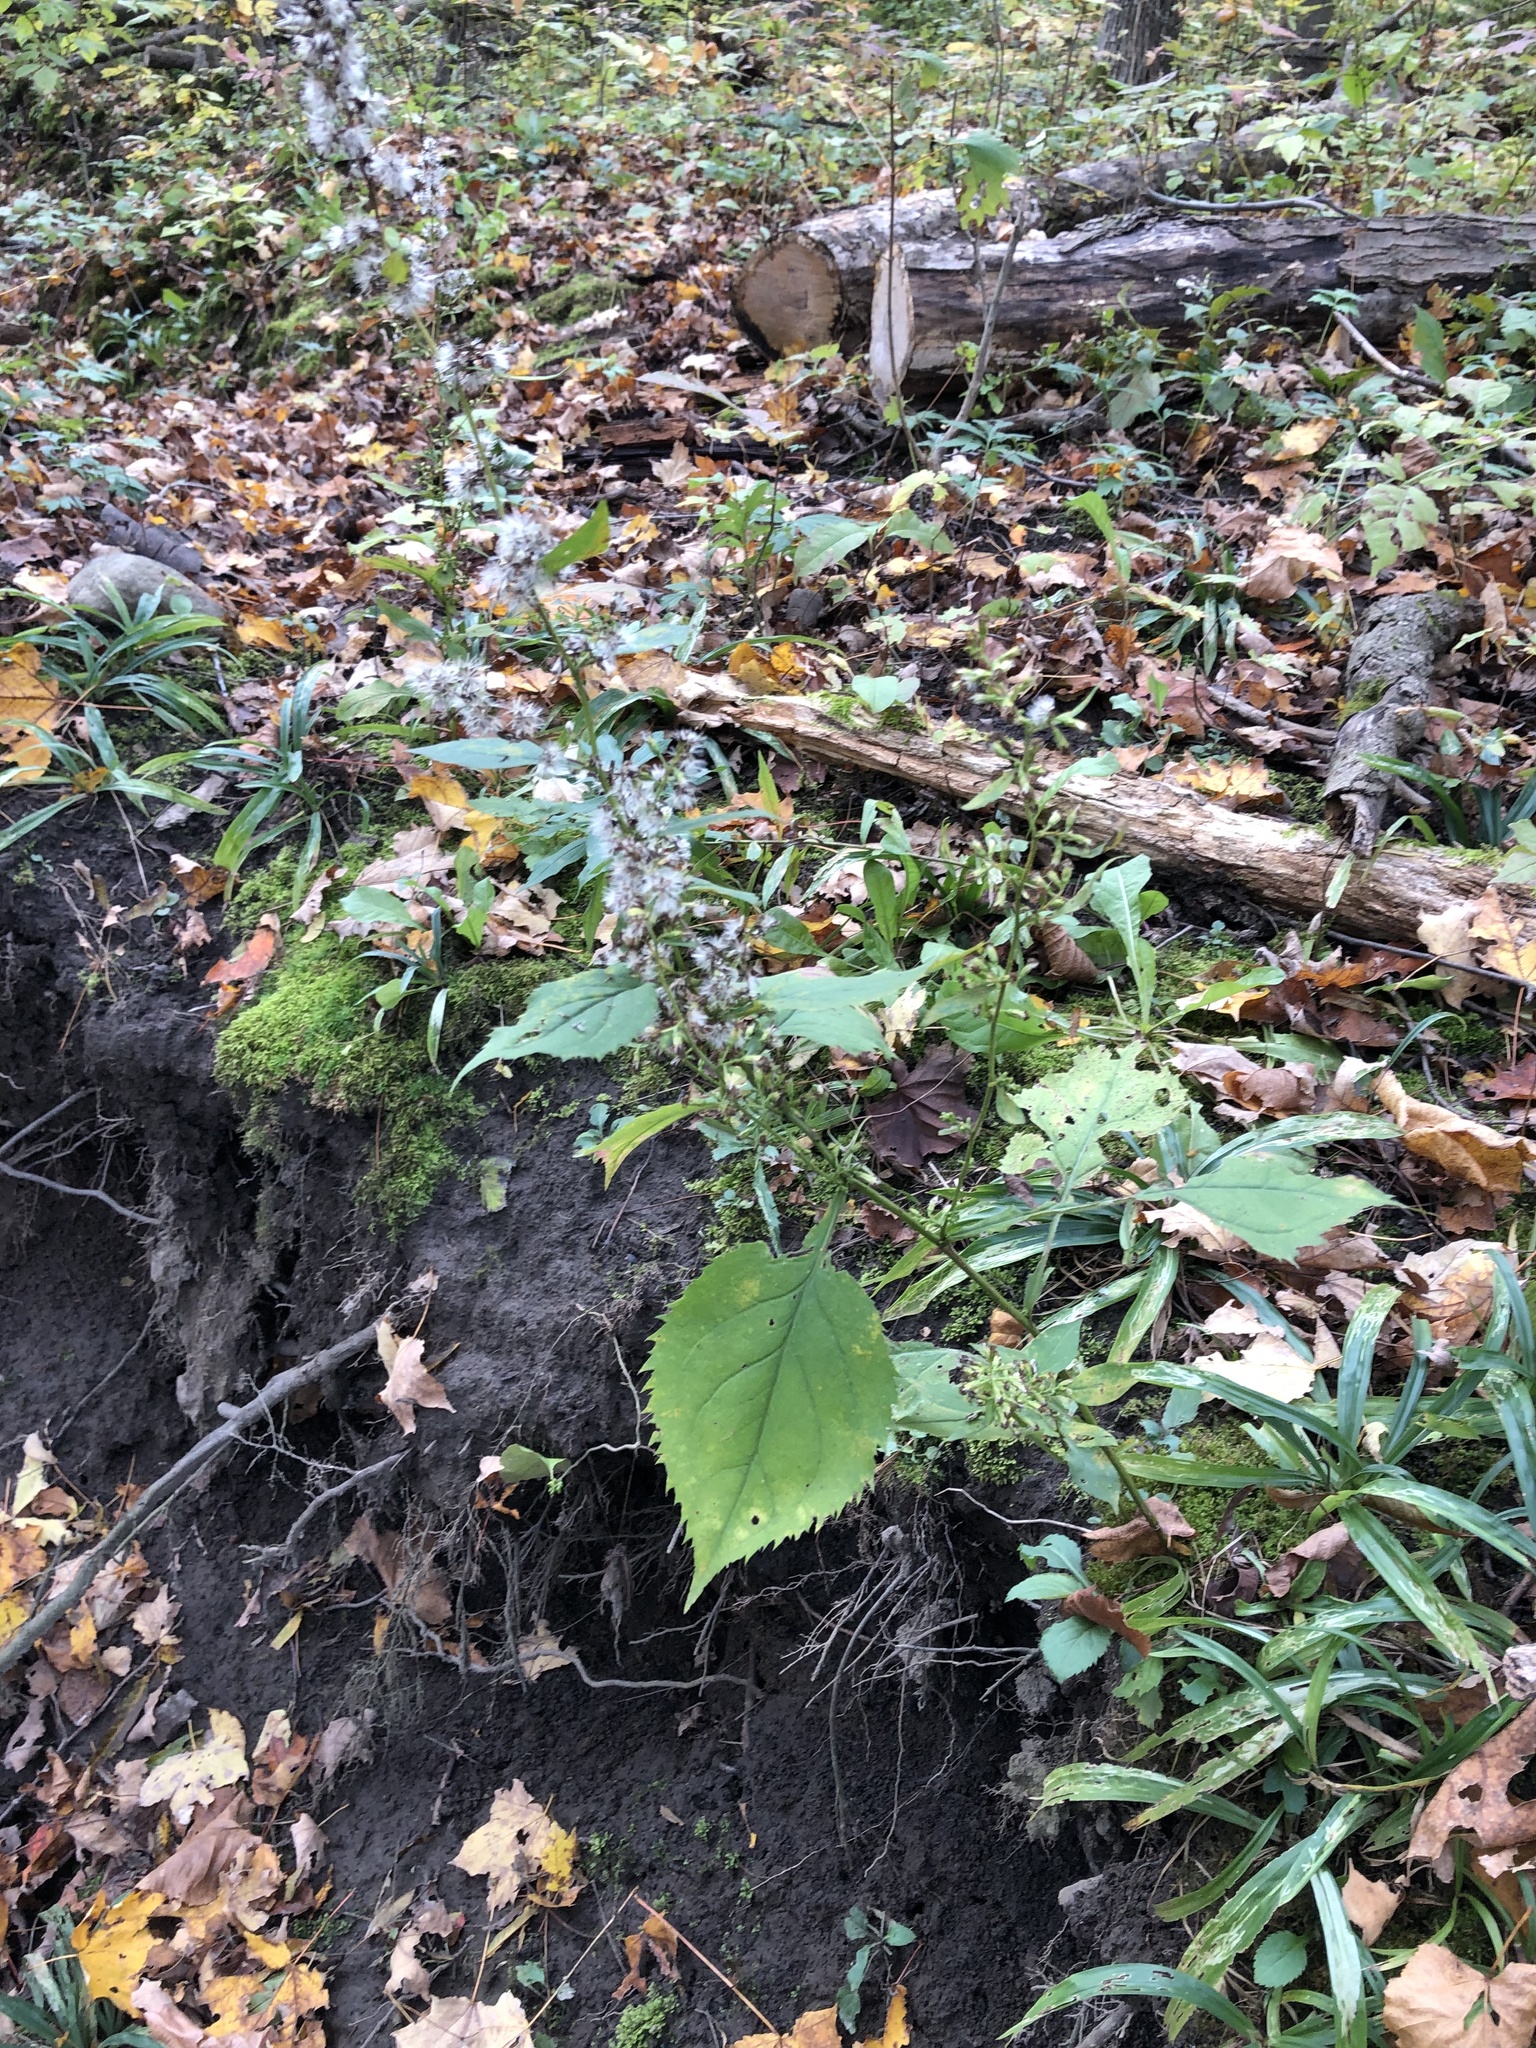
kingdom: Plantae
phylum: Tracheophyta
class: Magnoliopsida
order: Asterales
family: Asteraceae
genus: Solidago
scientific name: Solidago flexicaulis
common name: Zig-zag goldenrod
